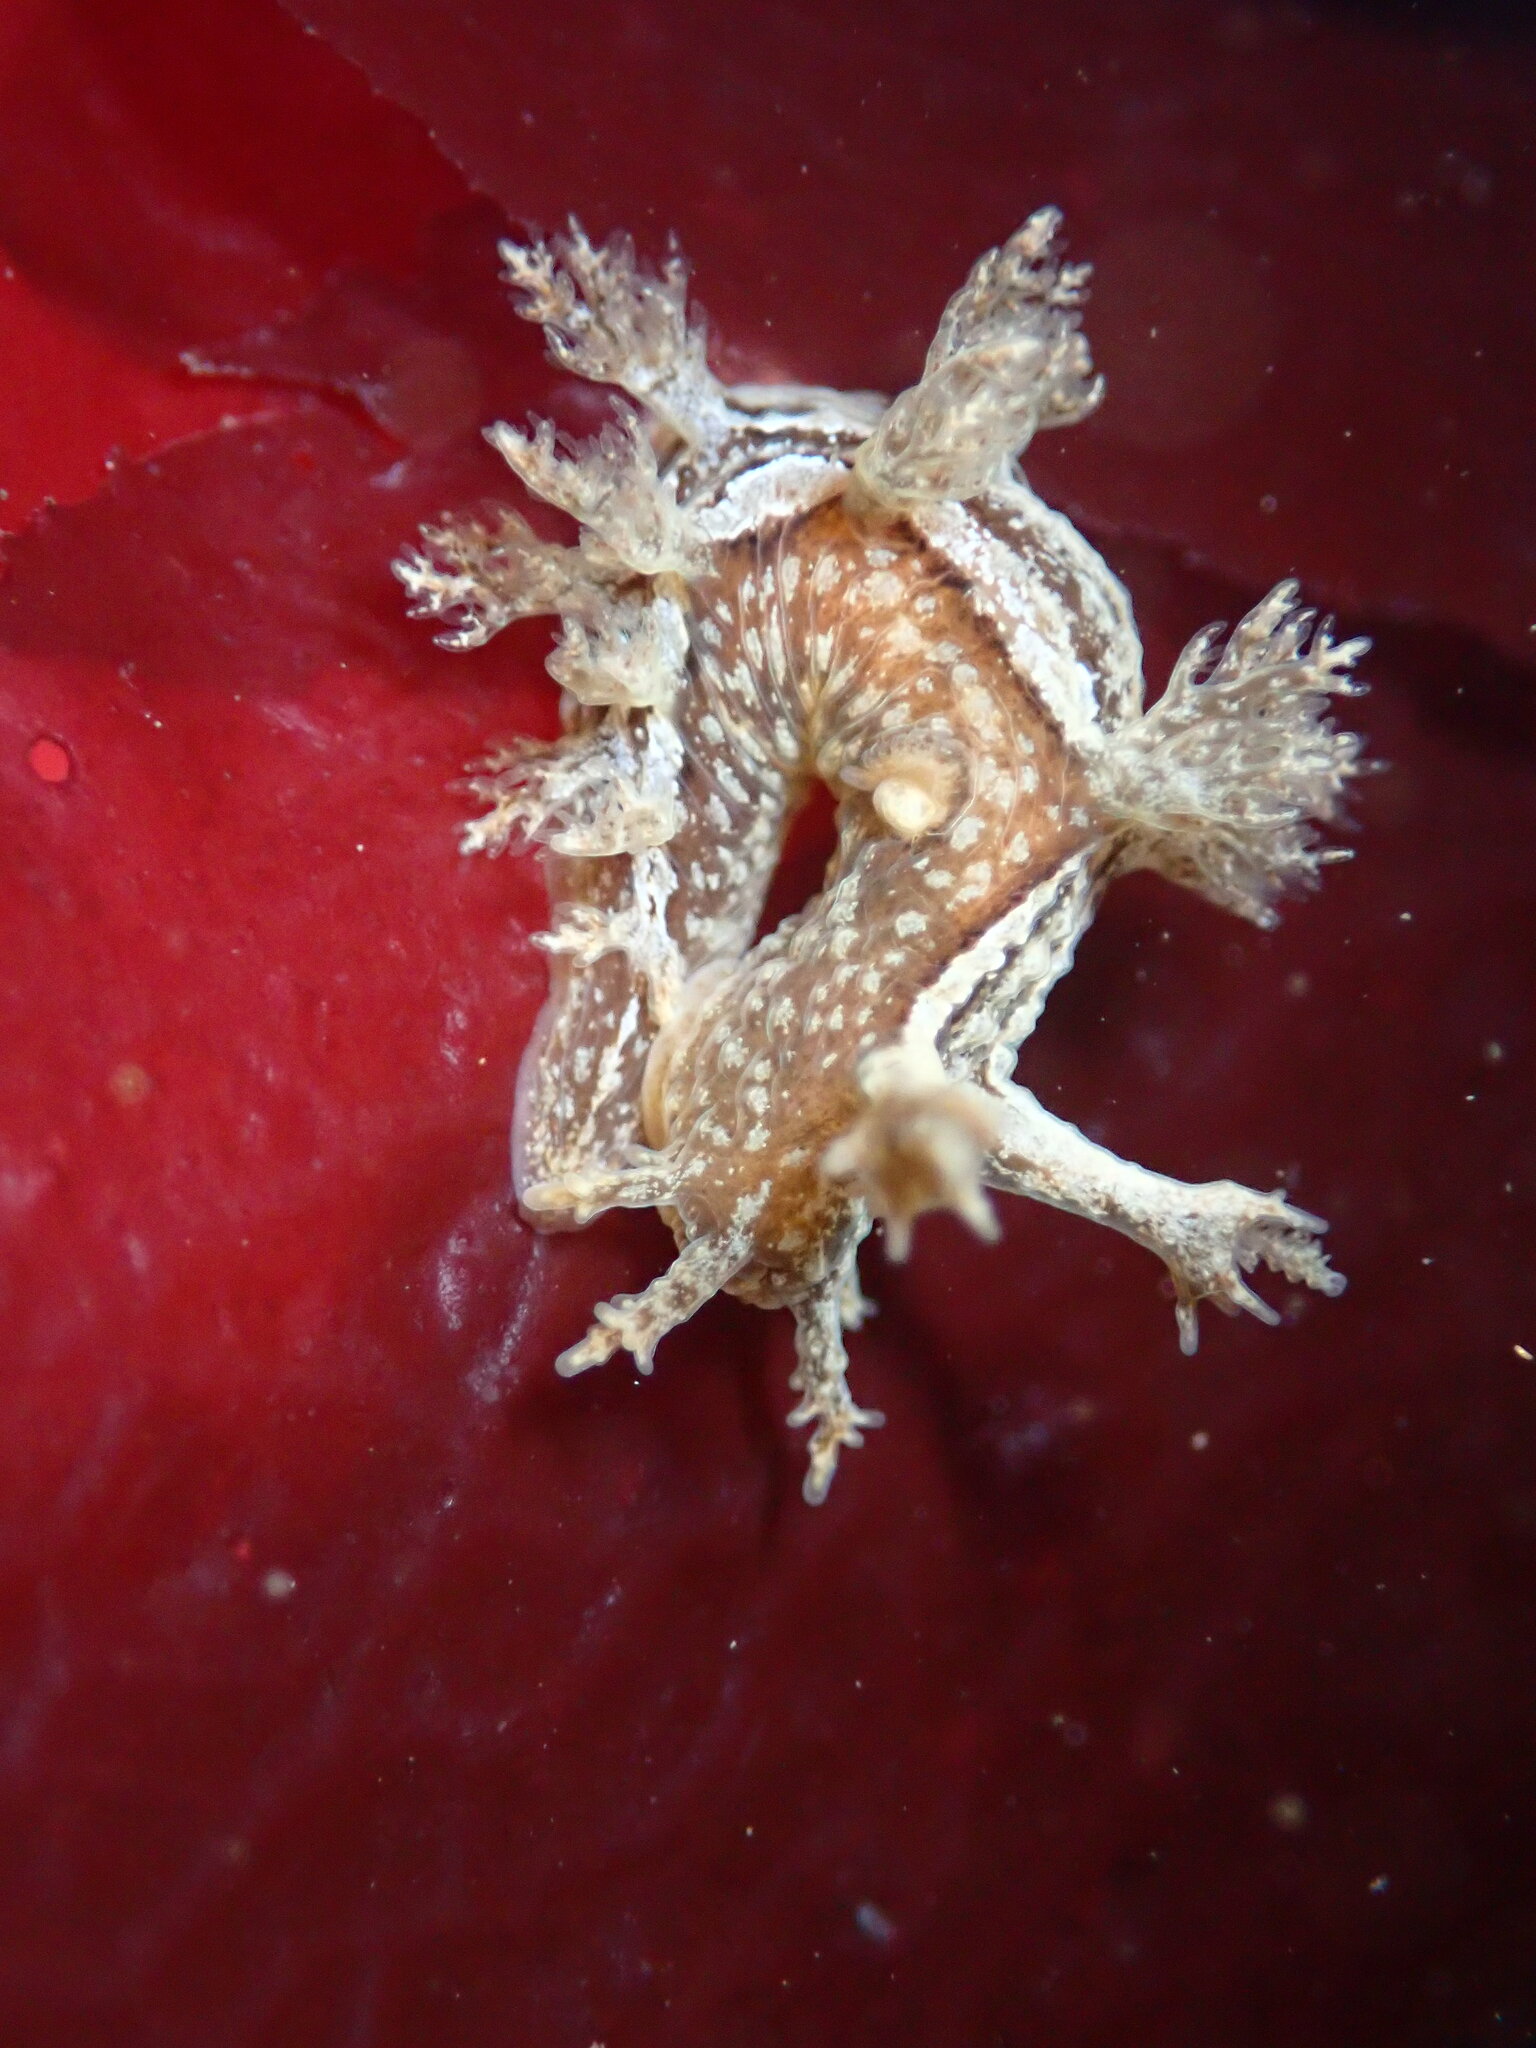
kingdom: Animalia
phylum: Mollusca
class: Gastropoda
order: Nudibranchia
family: Dendronotidae
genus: Dendronotus
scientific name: Dendronotus subramosus
